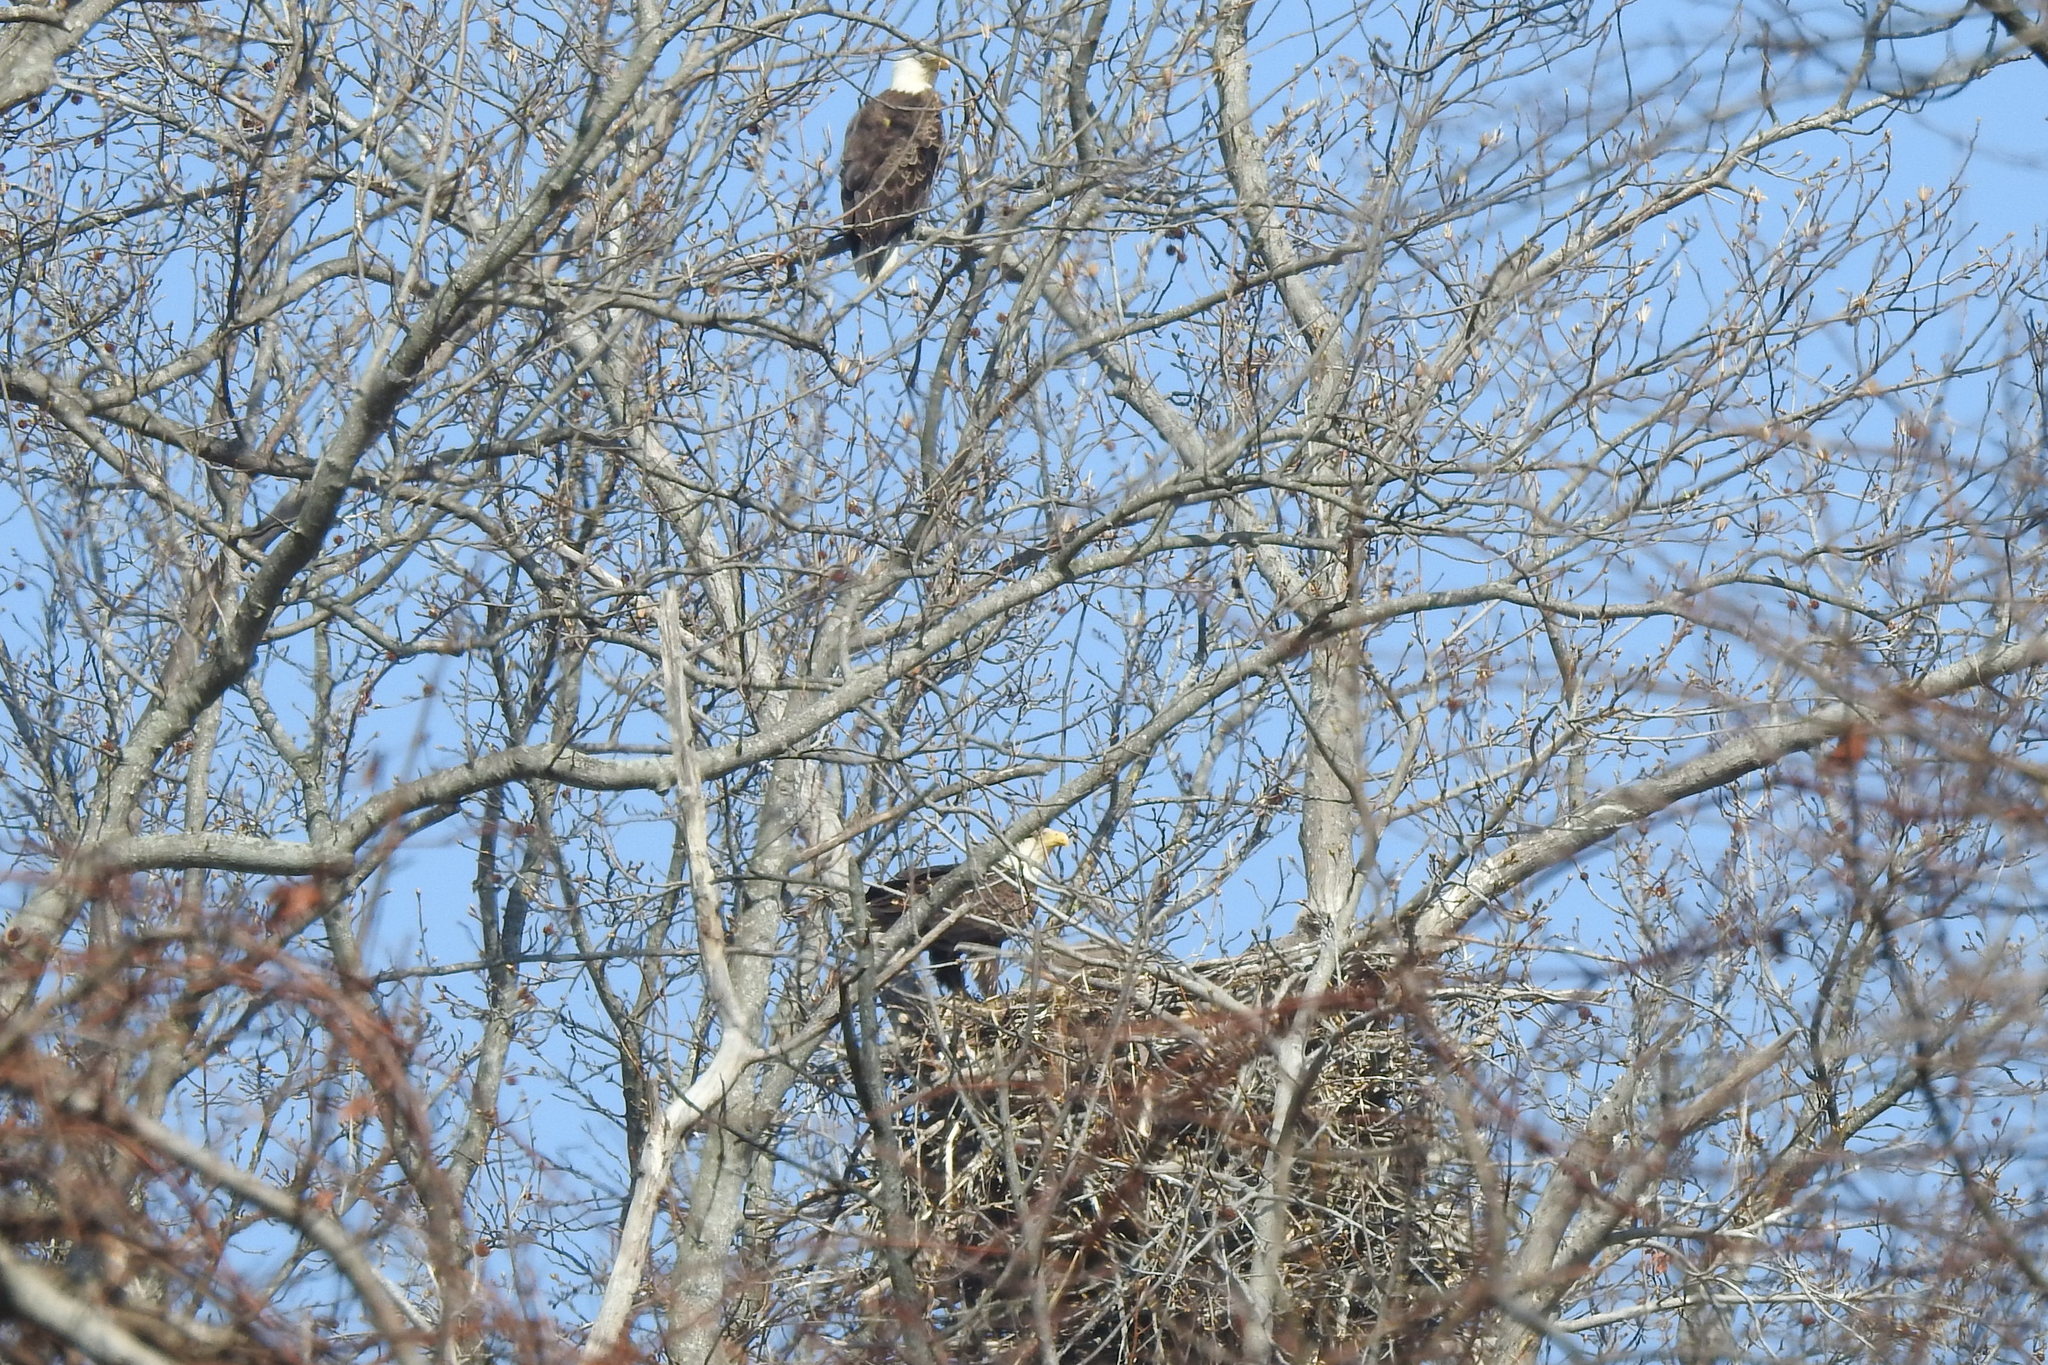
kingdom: Animalia
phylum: Chordata
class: Aves
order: Accipitriformes
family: Accipitridae
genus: Haliaeetus
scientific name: Haliaeetus leucocephalus
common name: Bald eagle
